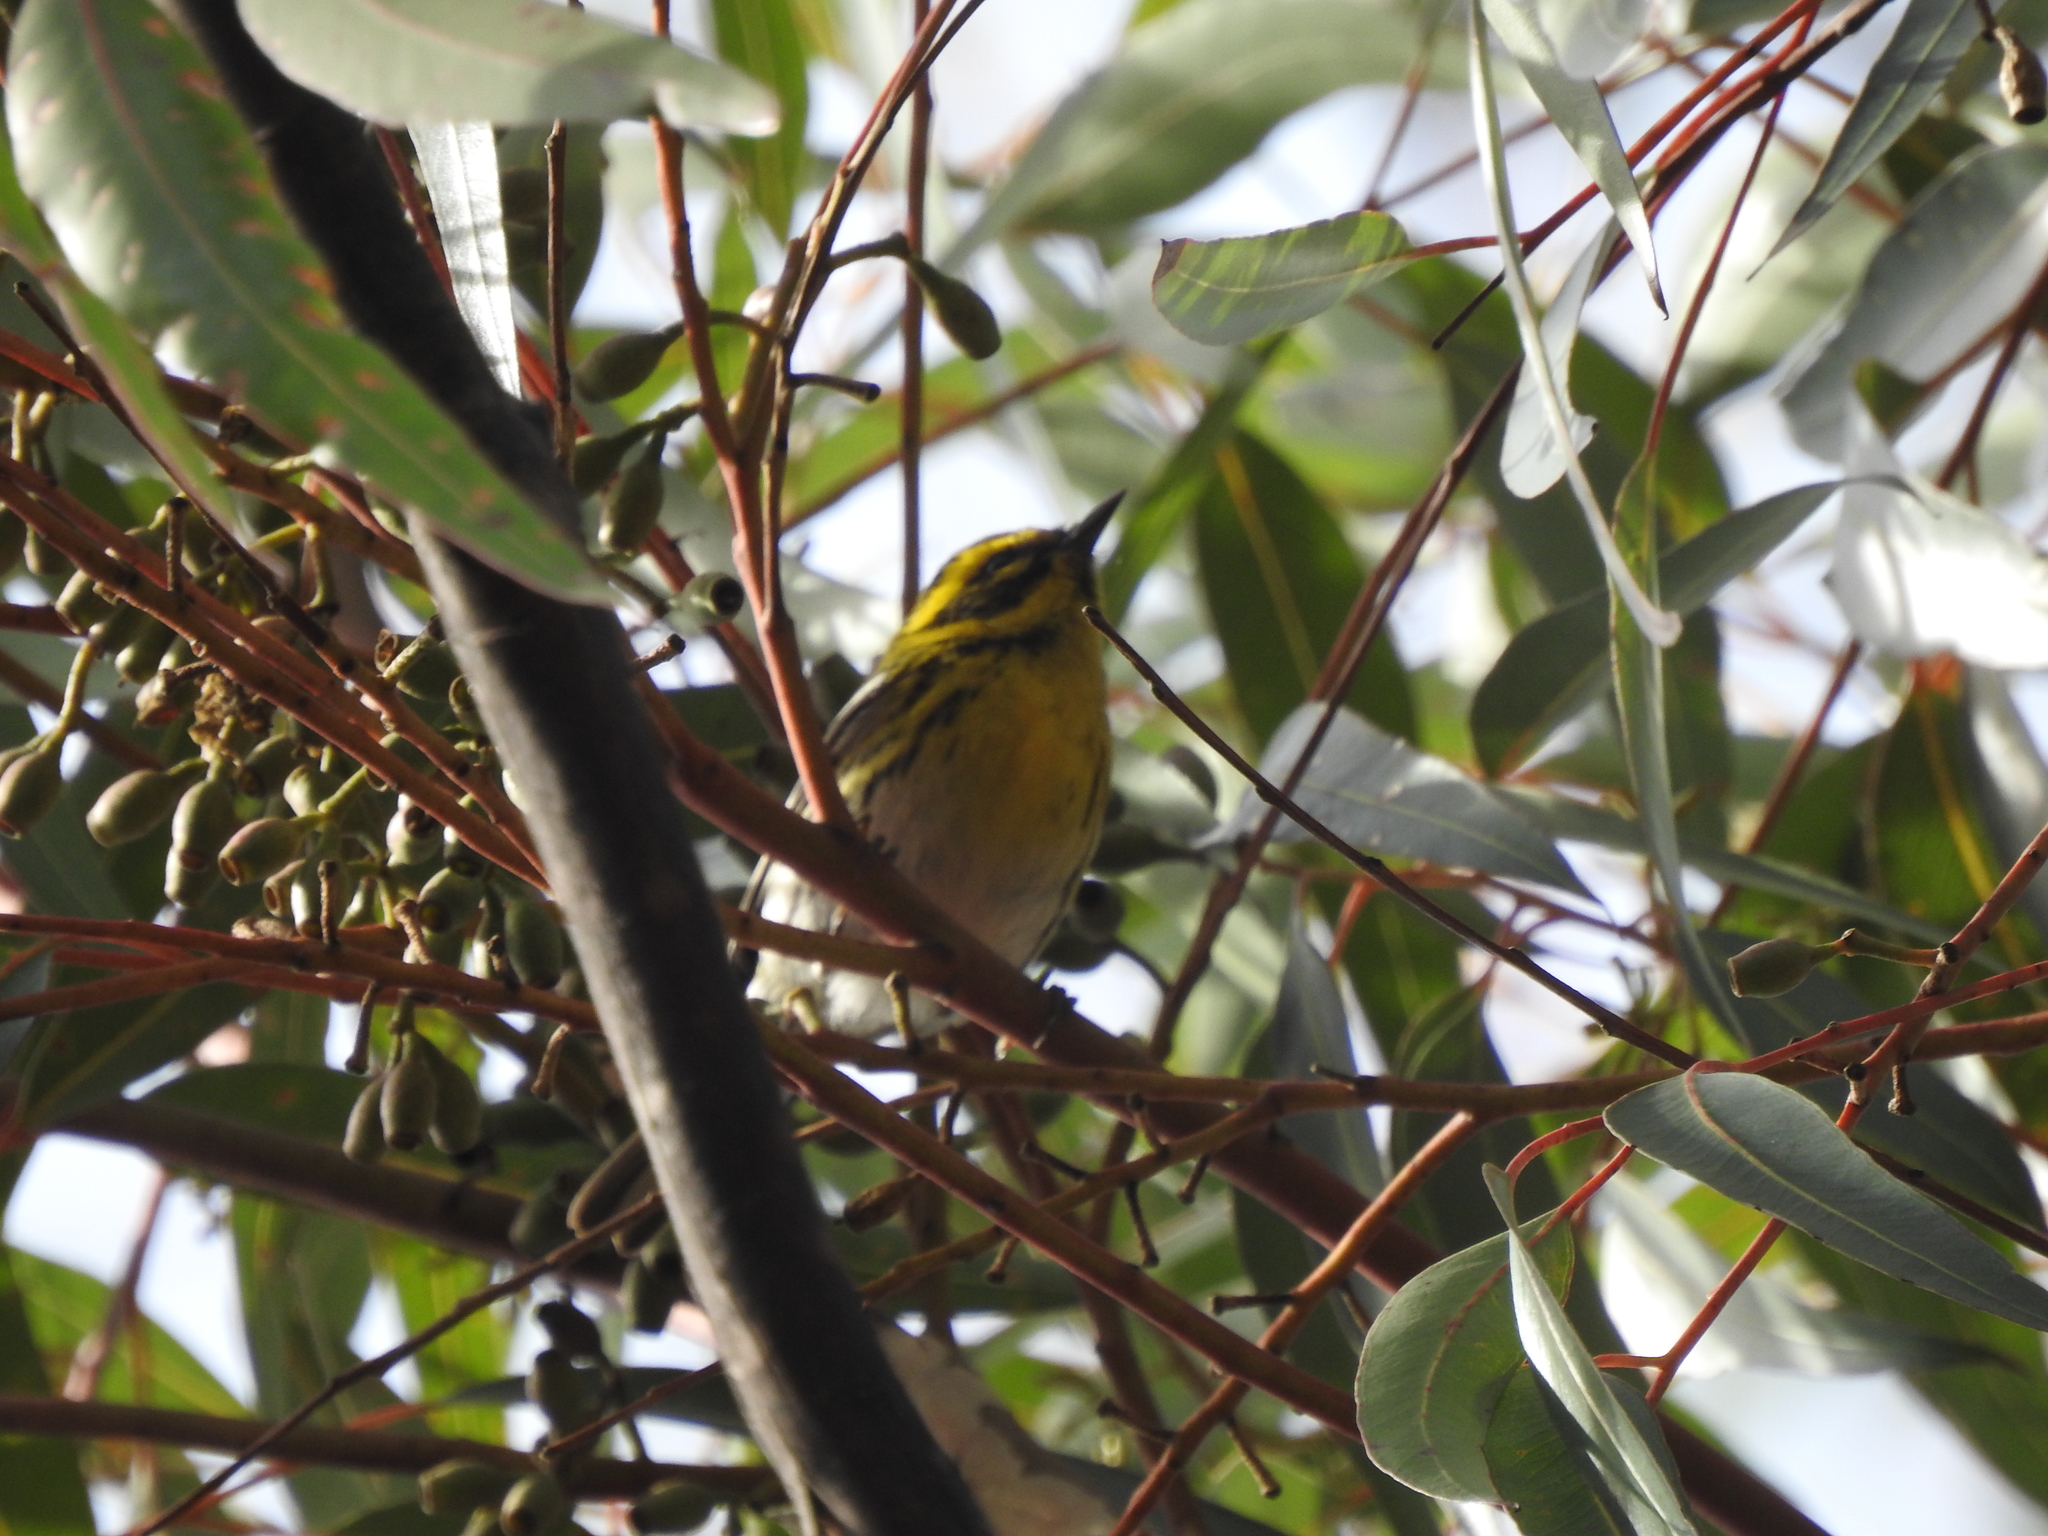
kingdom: Animalia
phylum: Chordata
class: Aves
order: Passeriformes
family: Parulidae
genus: Setophaga
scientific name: Setophaga townsendi
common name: Townsend's warbler
